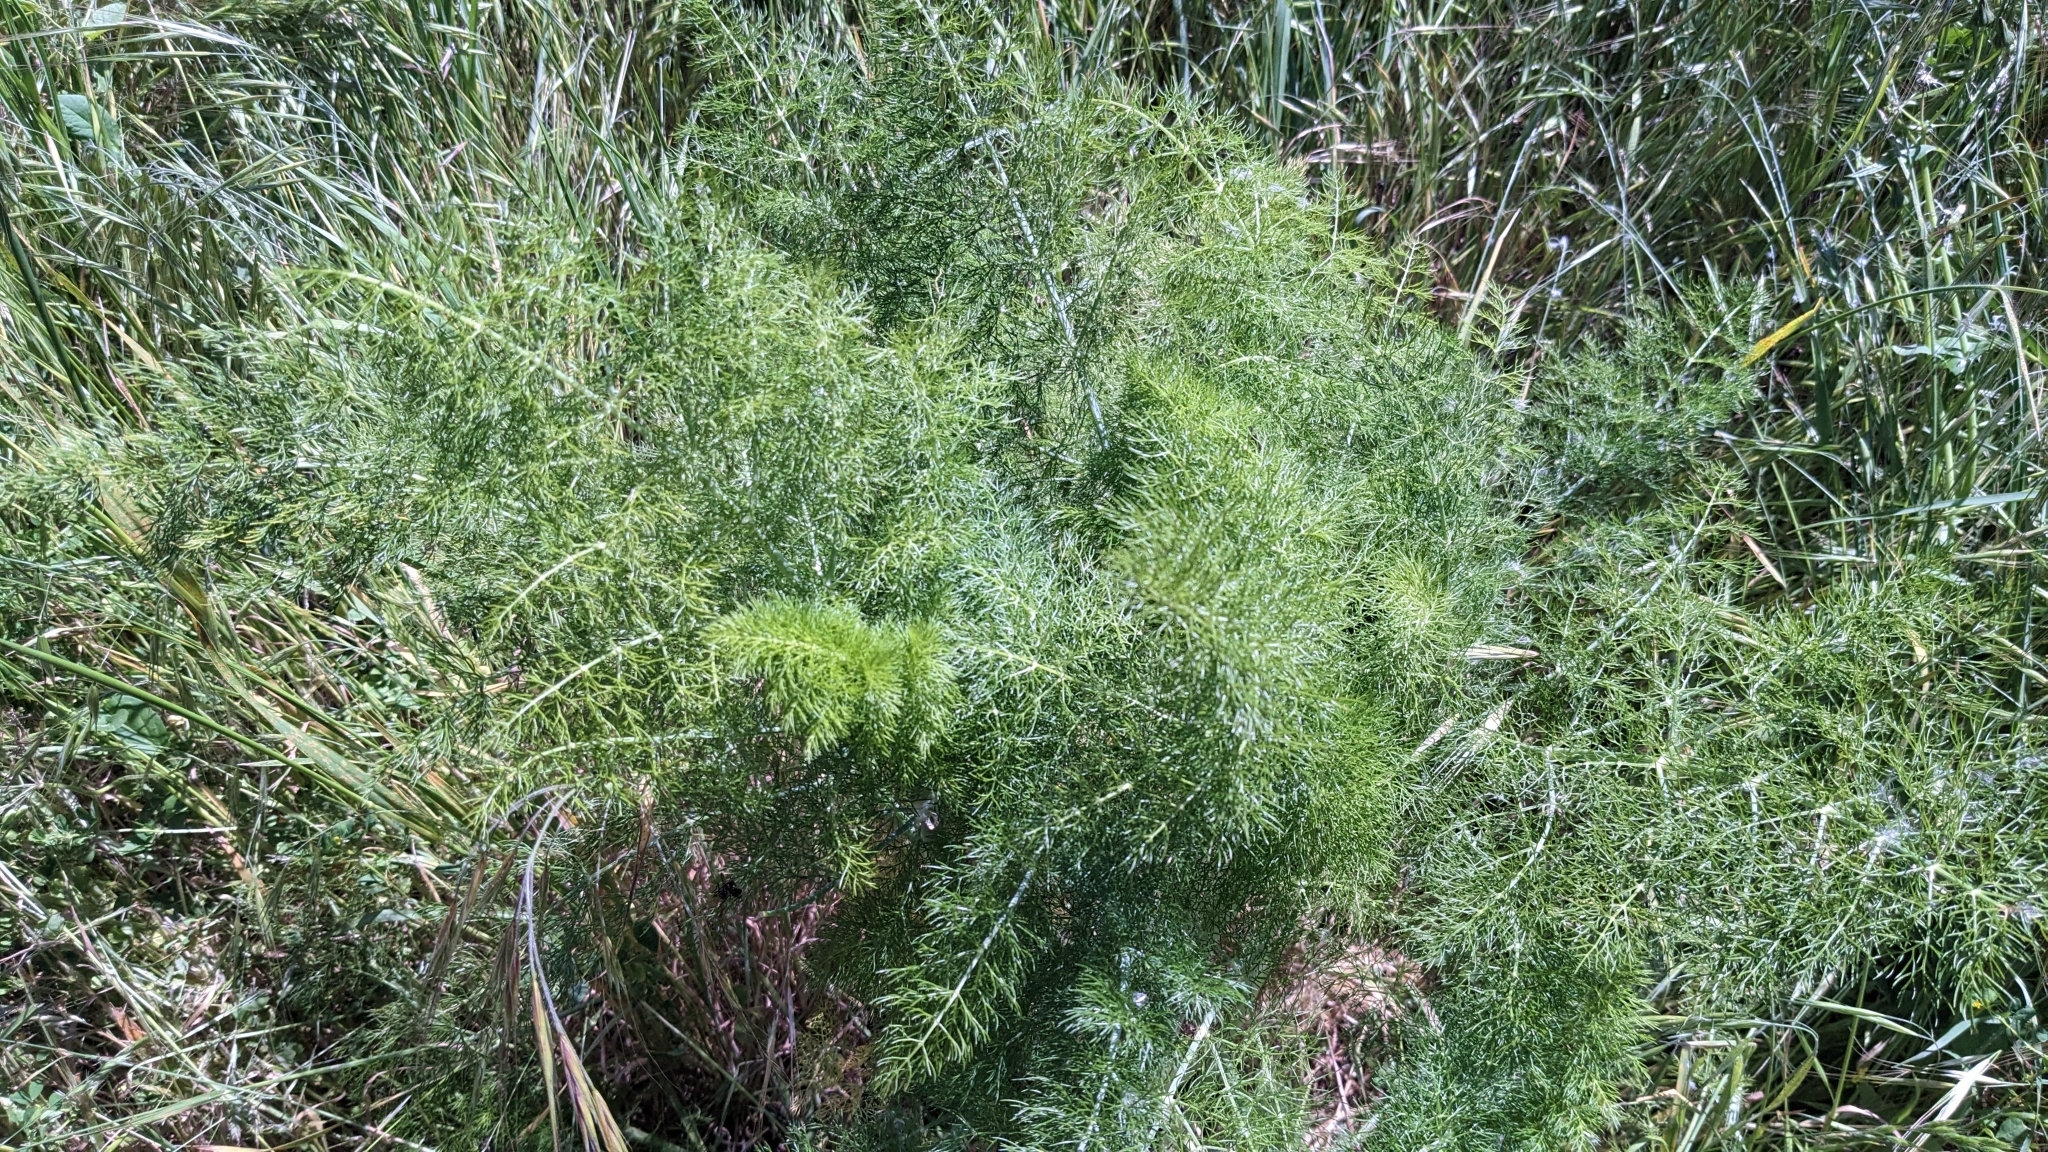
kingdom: Plantae
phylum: Tracheophyta
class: Magnoliopsida
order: Apiales
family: Apiaceae
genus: Foeniculum
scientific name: Foeniculum vulgare
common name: Fennel
